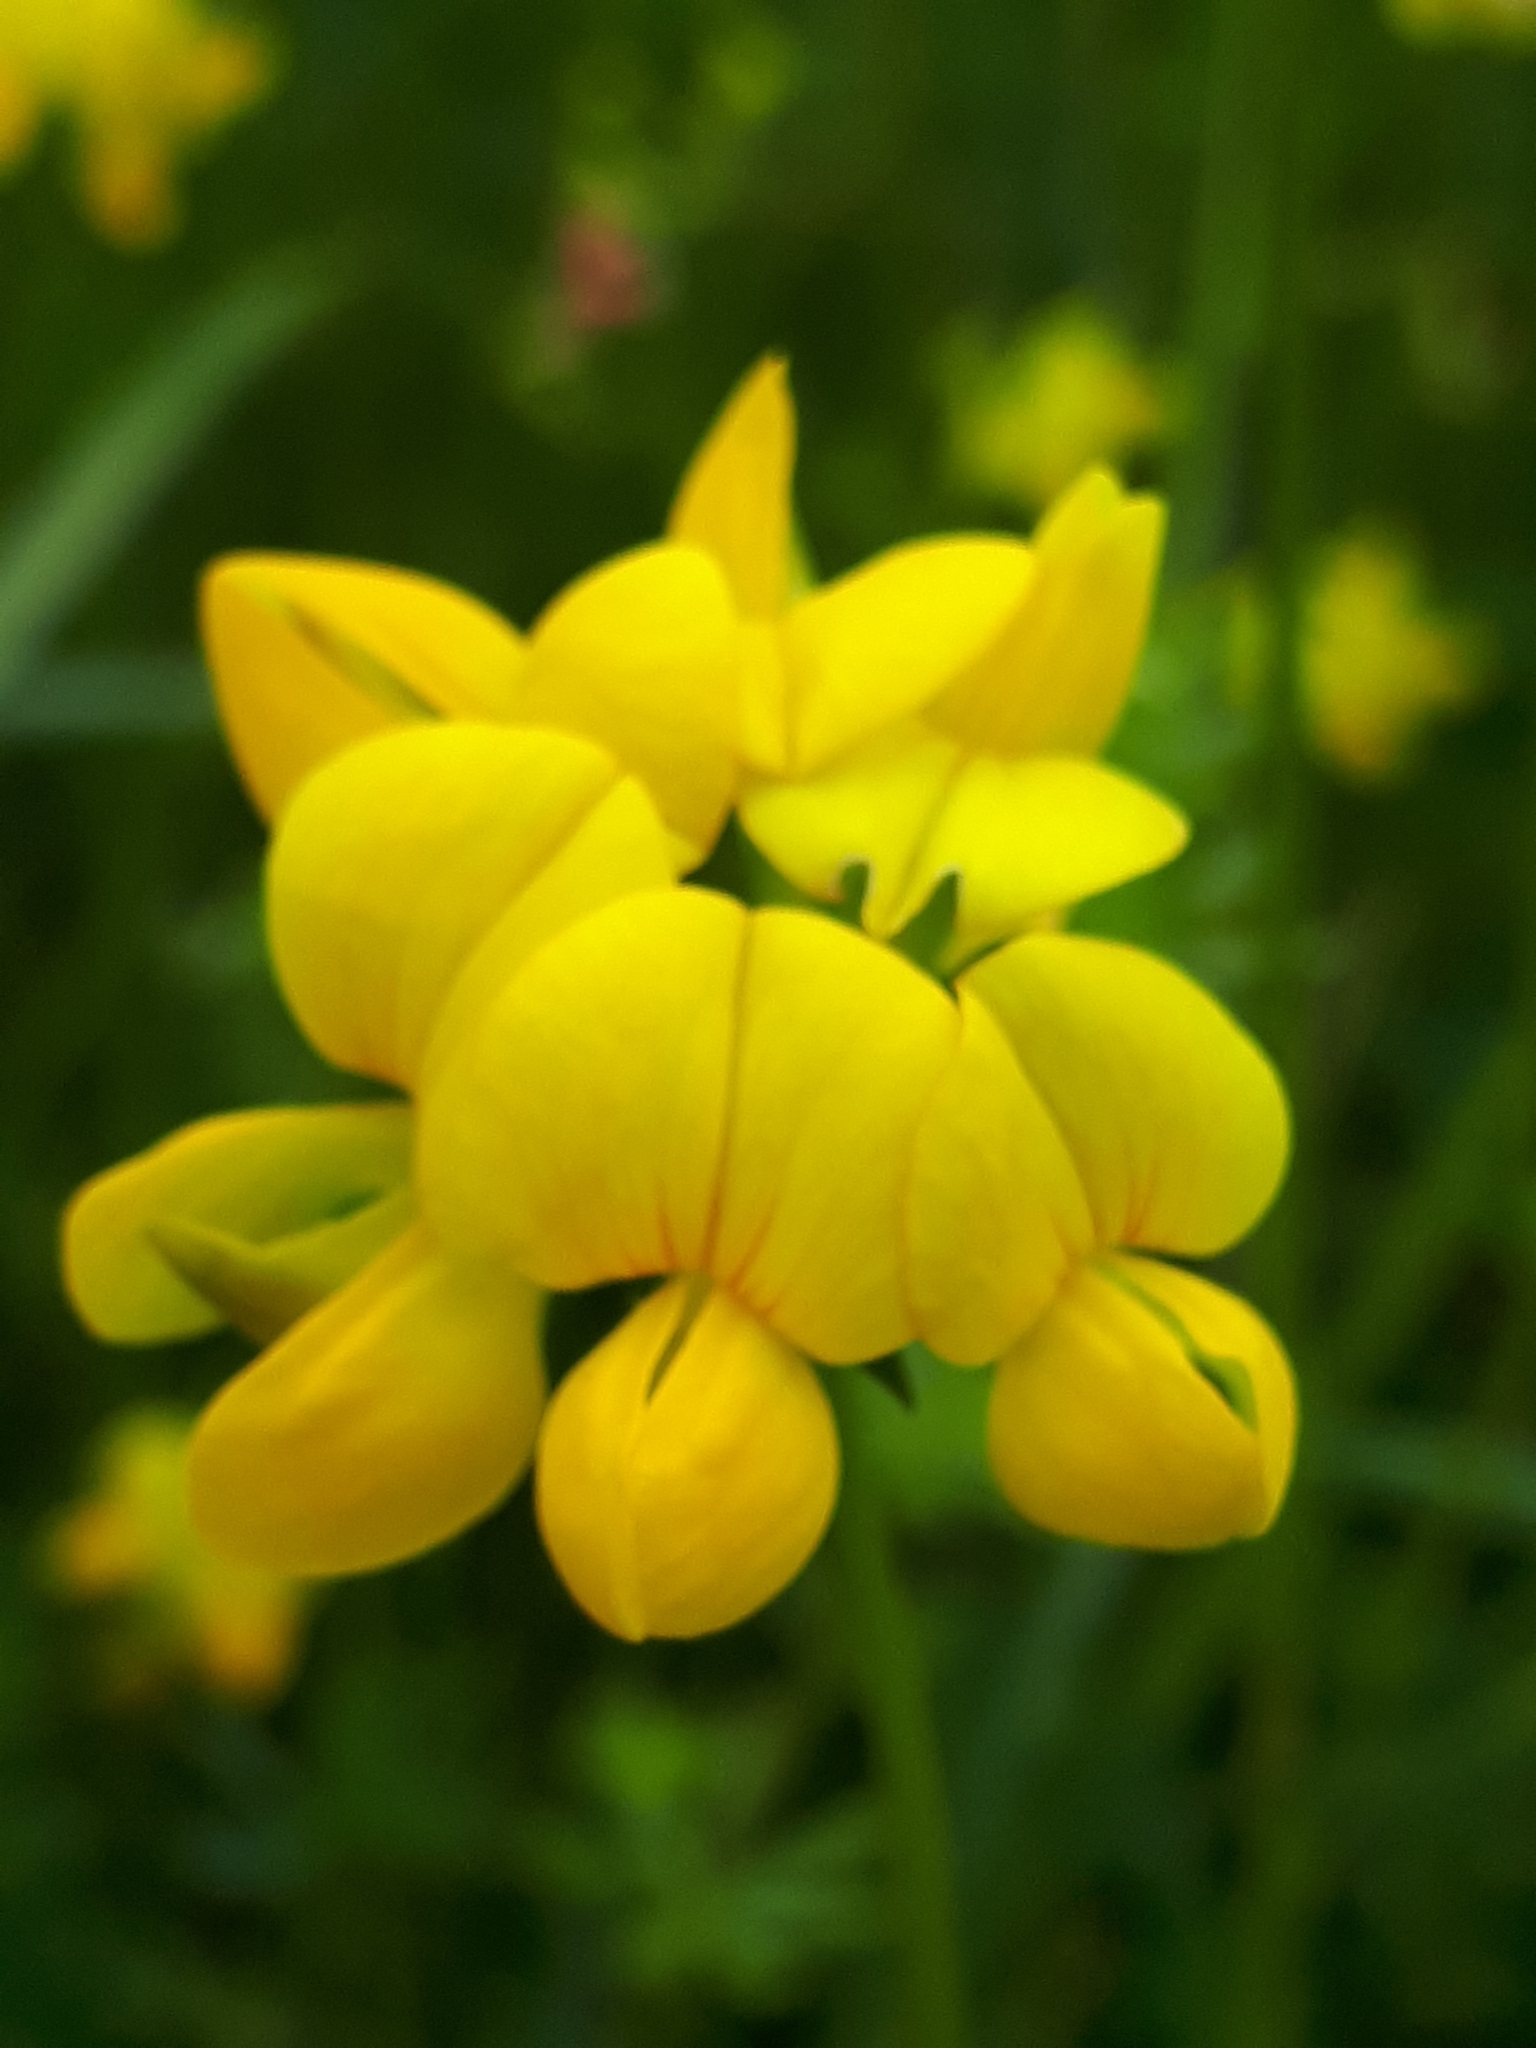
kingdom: Plantae
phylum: Tracheophyta
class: Magnoliopsida
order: Fabales
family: Fabaceae
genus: Lotus
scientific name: Lotus corniculatus
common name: Common bird's-foot-trefoil
